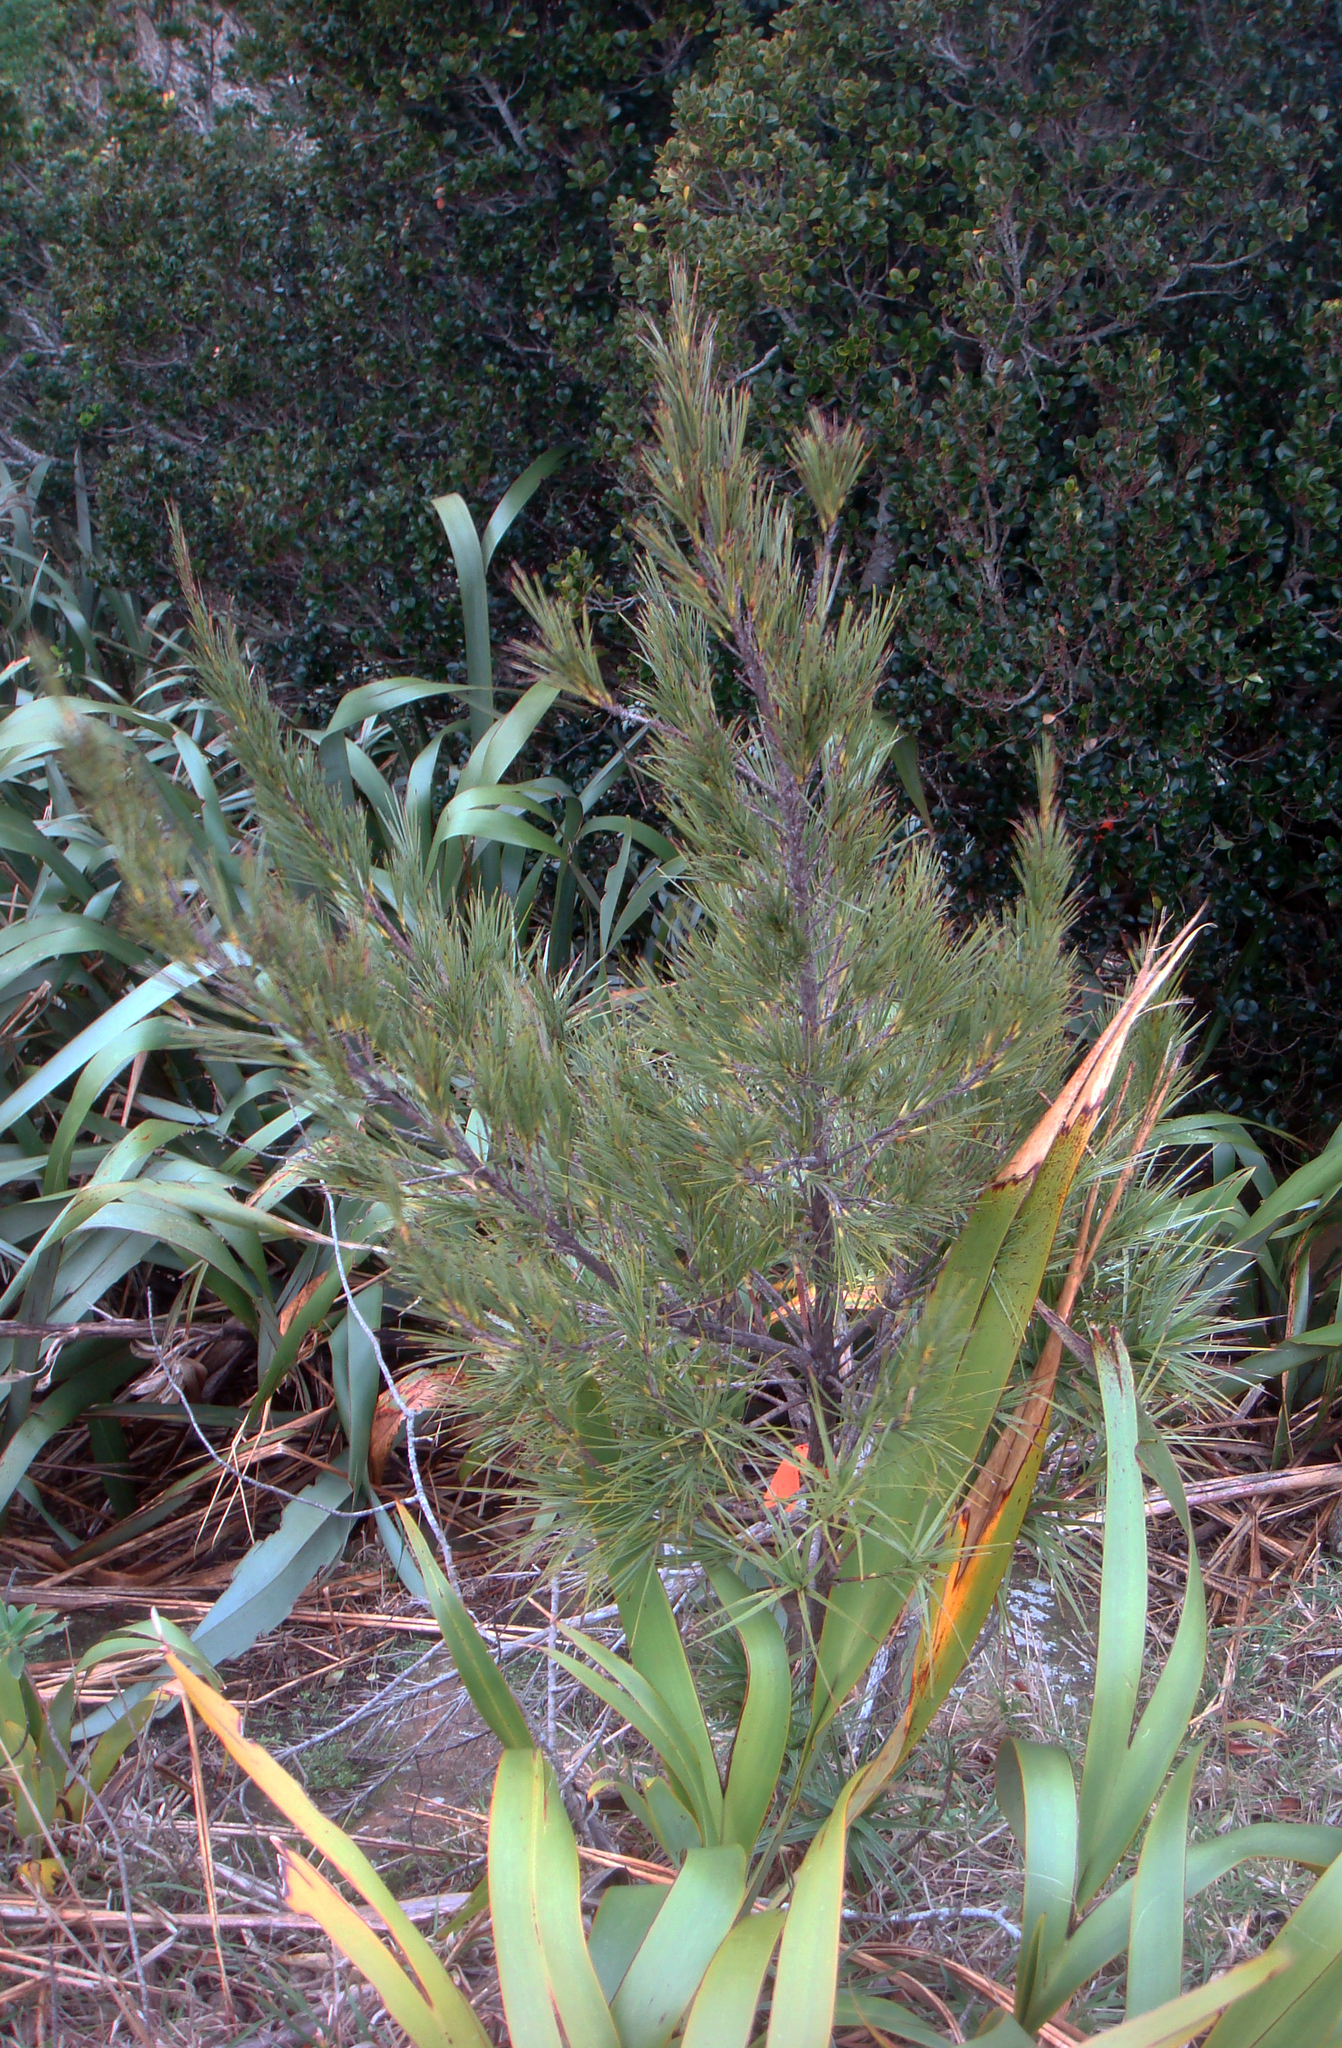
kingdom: Plantae
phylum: Tracheophyta
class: Magnoliopsida
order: Ericales
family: Ericaceae
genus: Dracophyllum
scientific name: Dracophyllum arboreum
